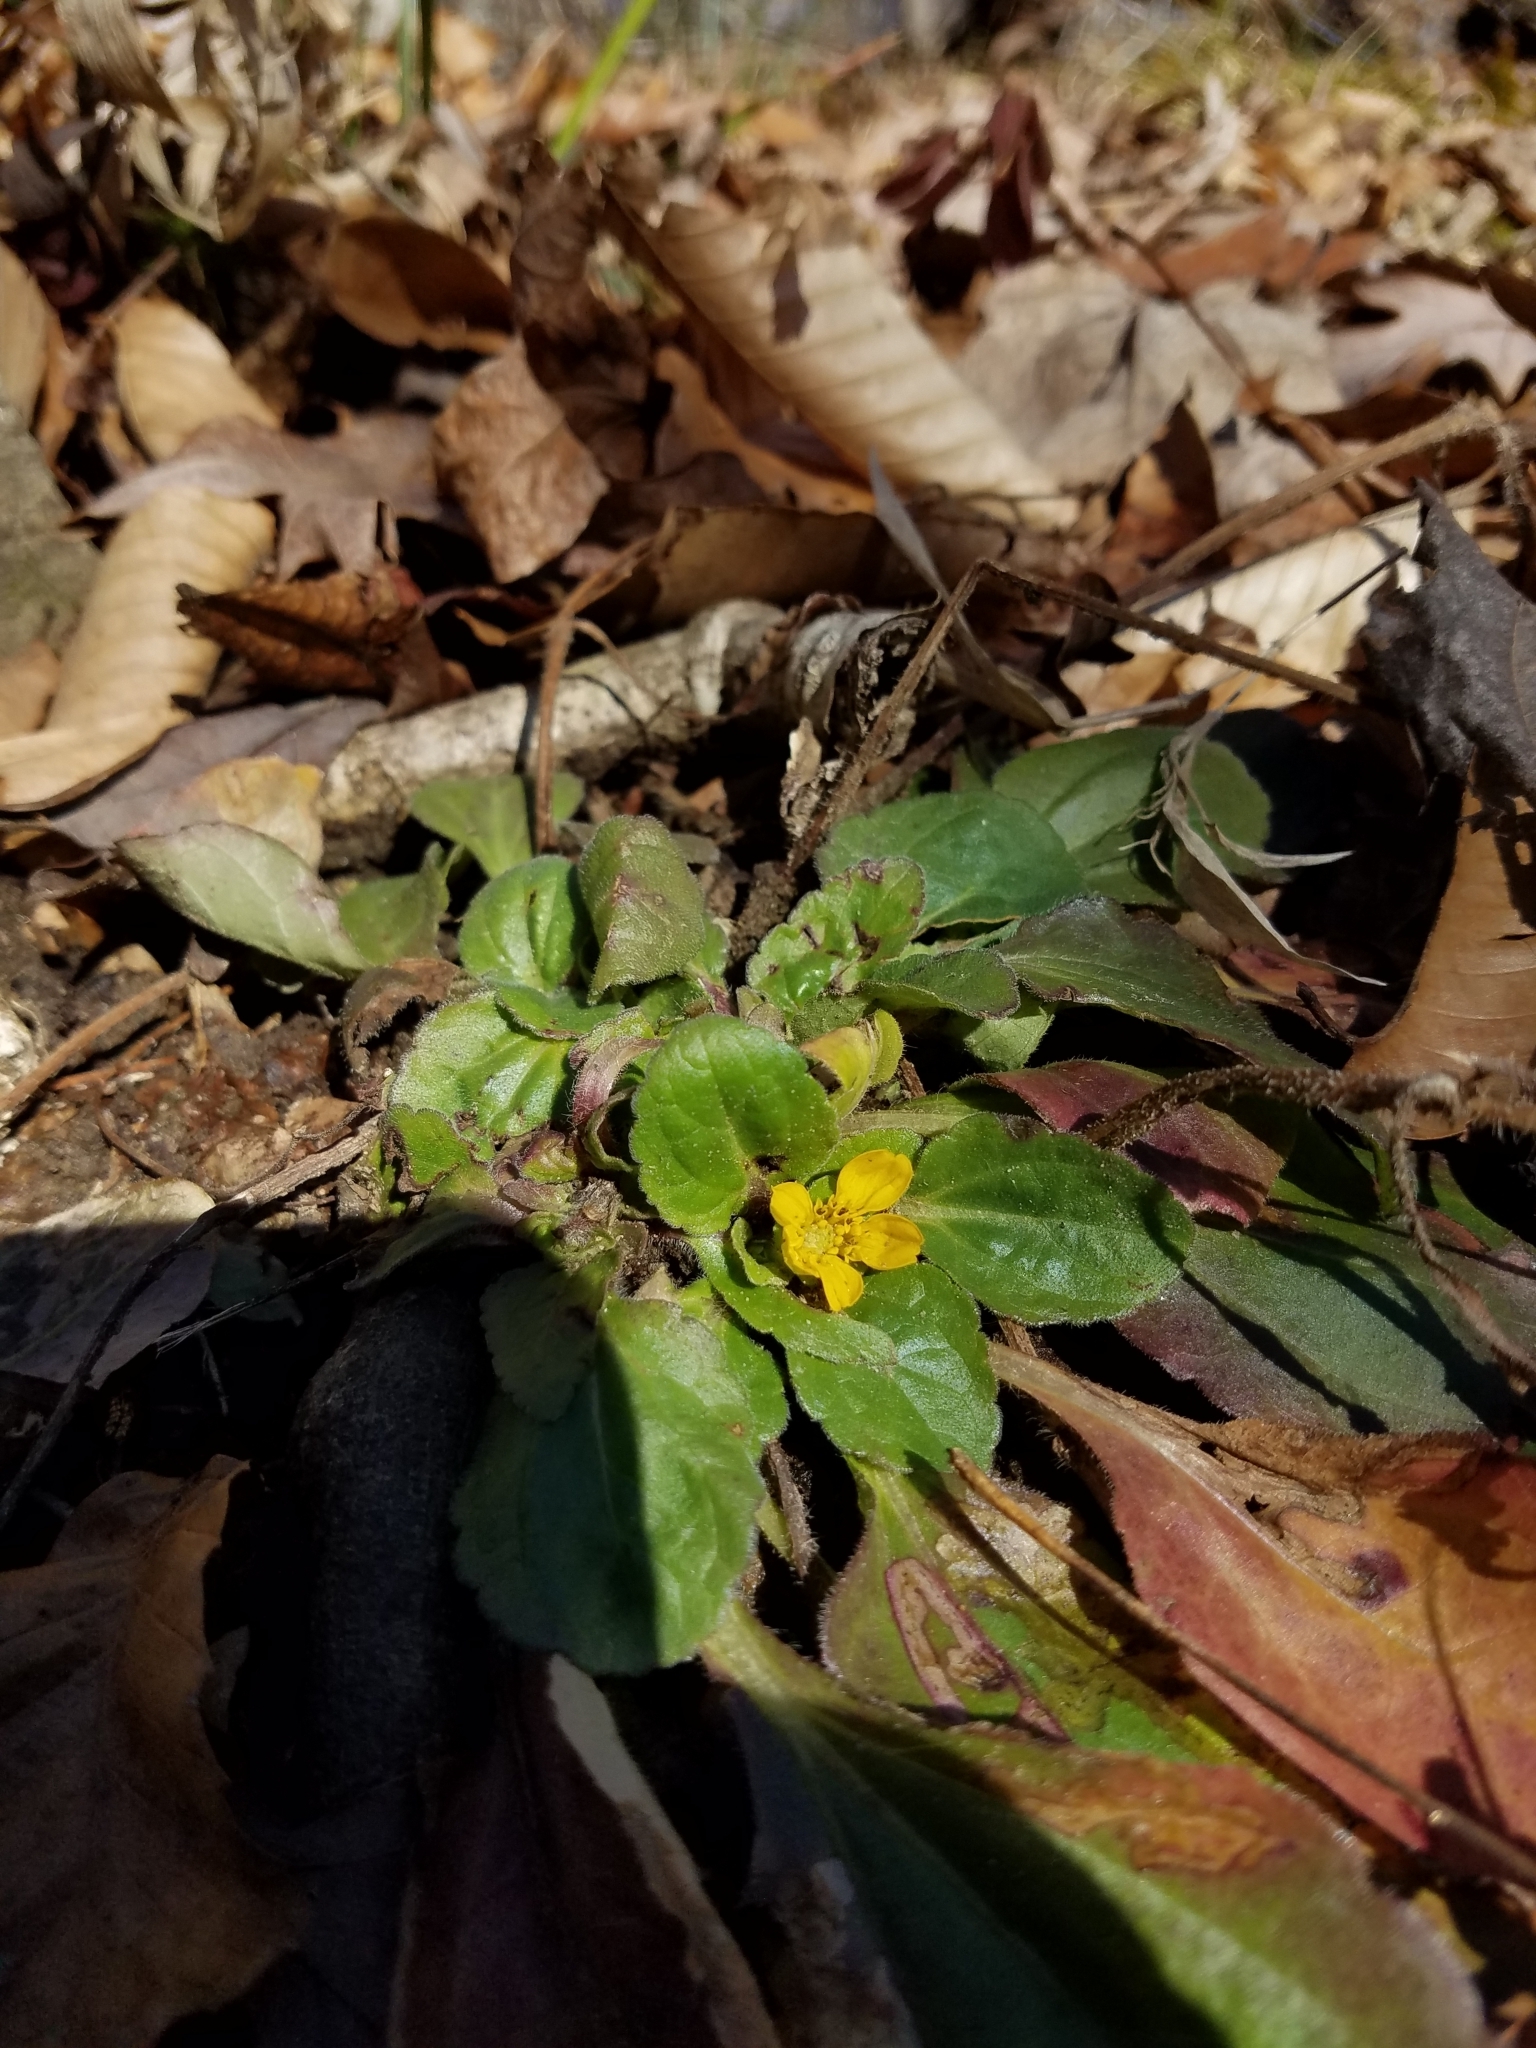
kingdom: Plantae
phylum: Tracheophyta
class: Magnoliopsida
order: Asterales
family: Asteraceae
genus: Chrysogonum
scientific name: Chrysogonum virginianum
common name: Golden-knee
